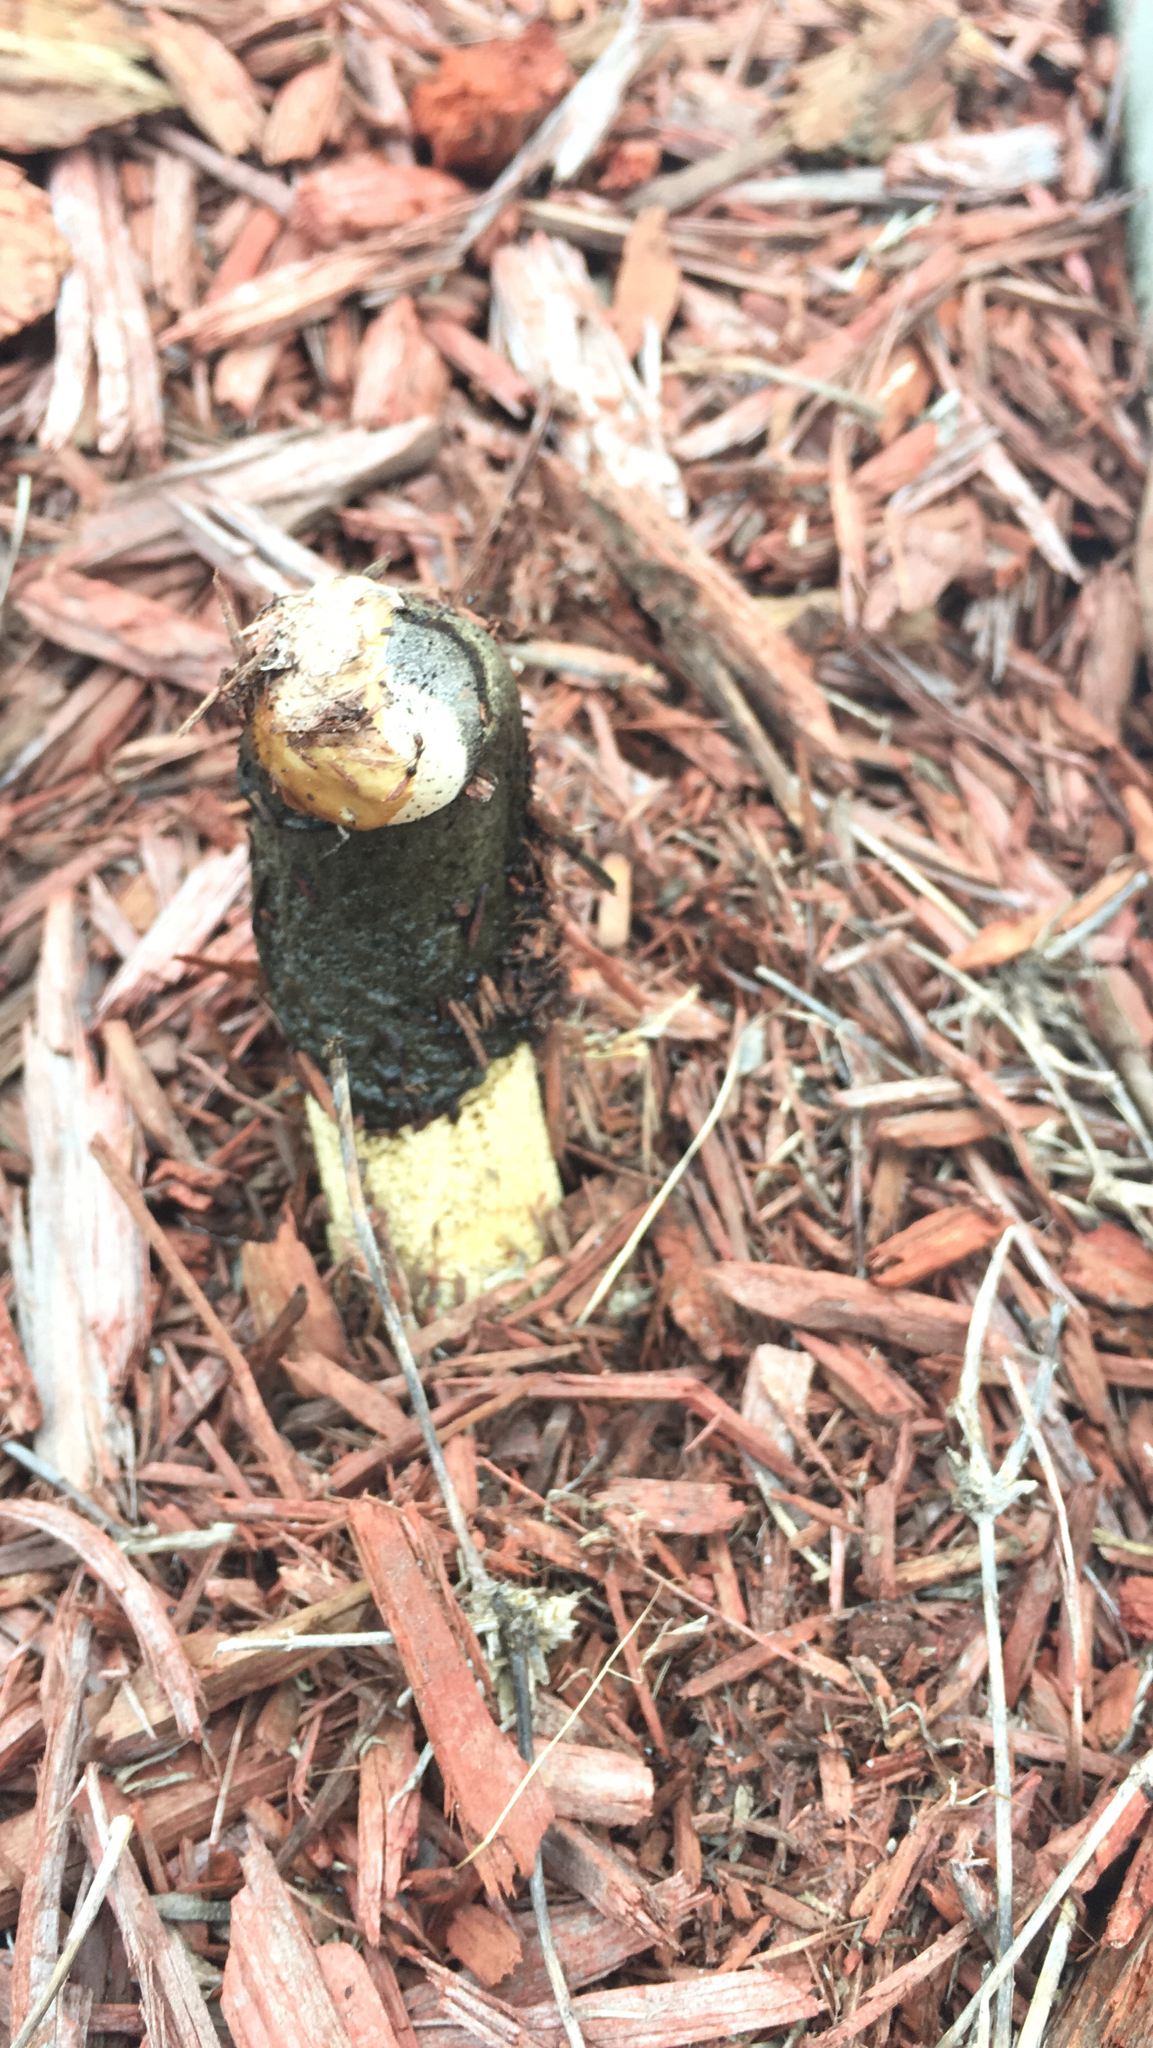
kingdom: Fungi
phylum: Basidiomycota
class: Agaricomycetes
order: Phallales
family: Phallaceae
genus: Phallus
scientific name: Phallus ravenelii
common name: Ravenel's stinkhorn
